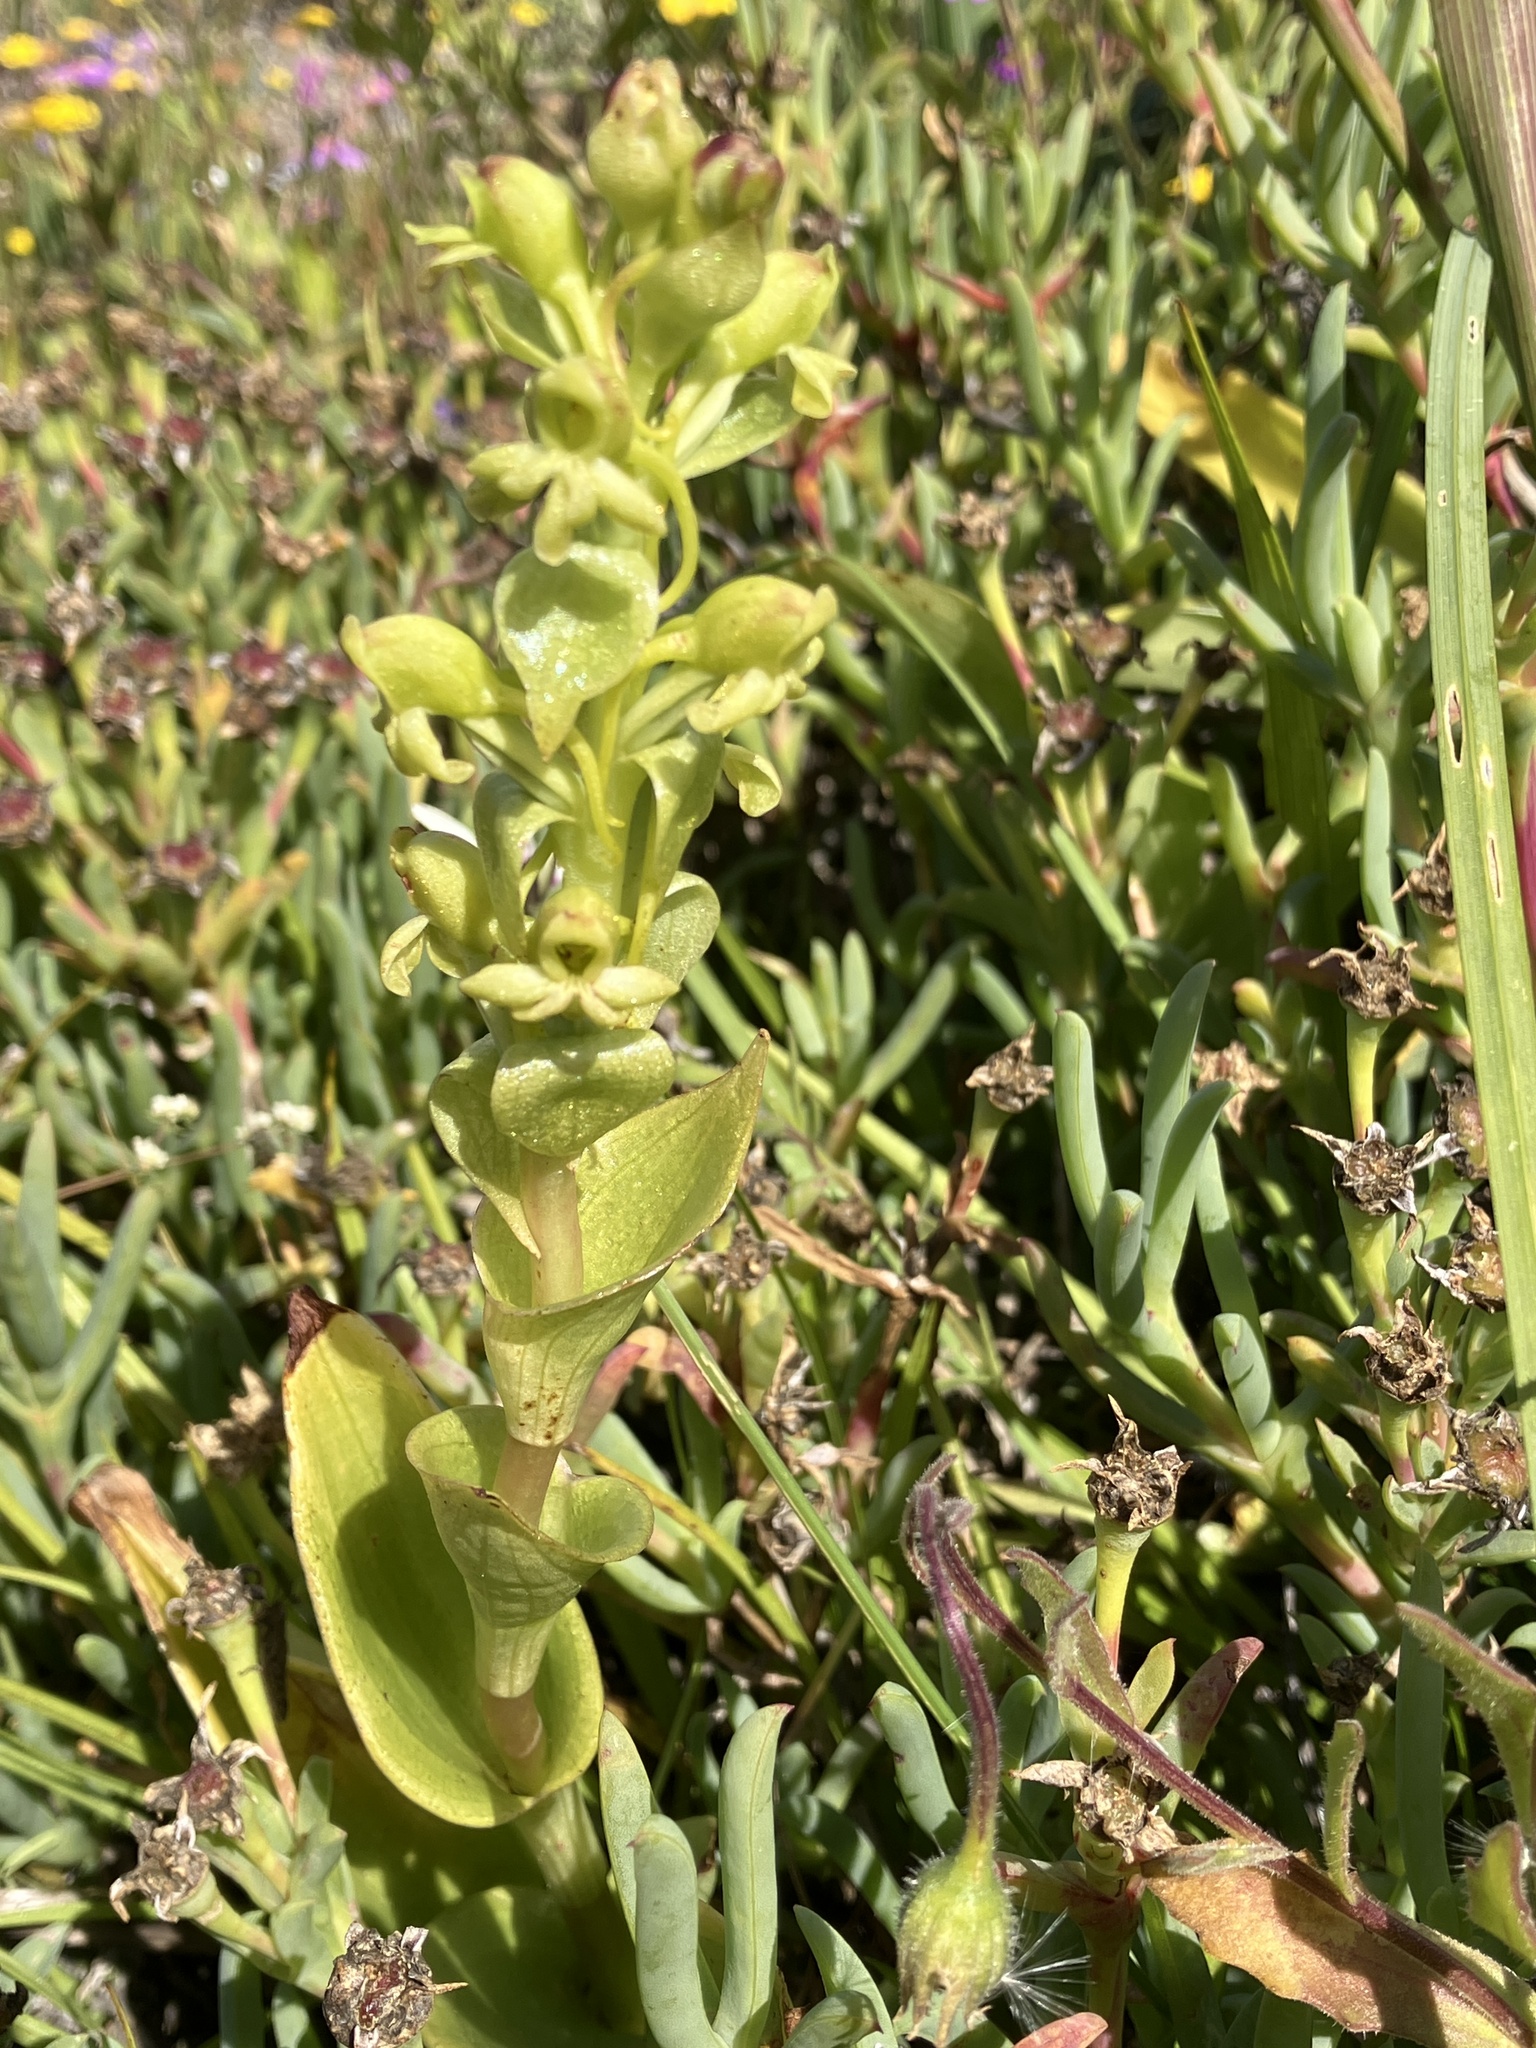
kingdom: Plantae
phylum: Tracheophyta
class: Liliopsida
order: Asparagales
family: Orchidaceae
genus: Satyrium
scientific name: Satyrium odorum
